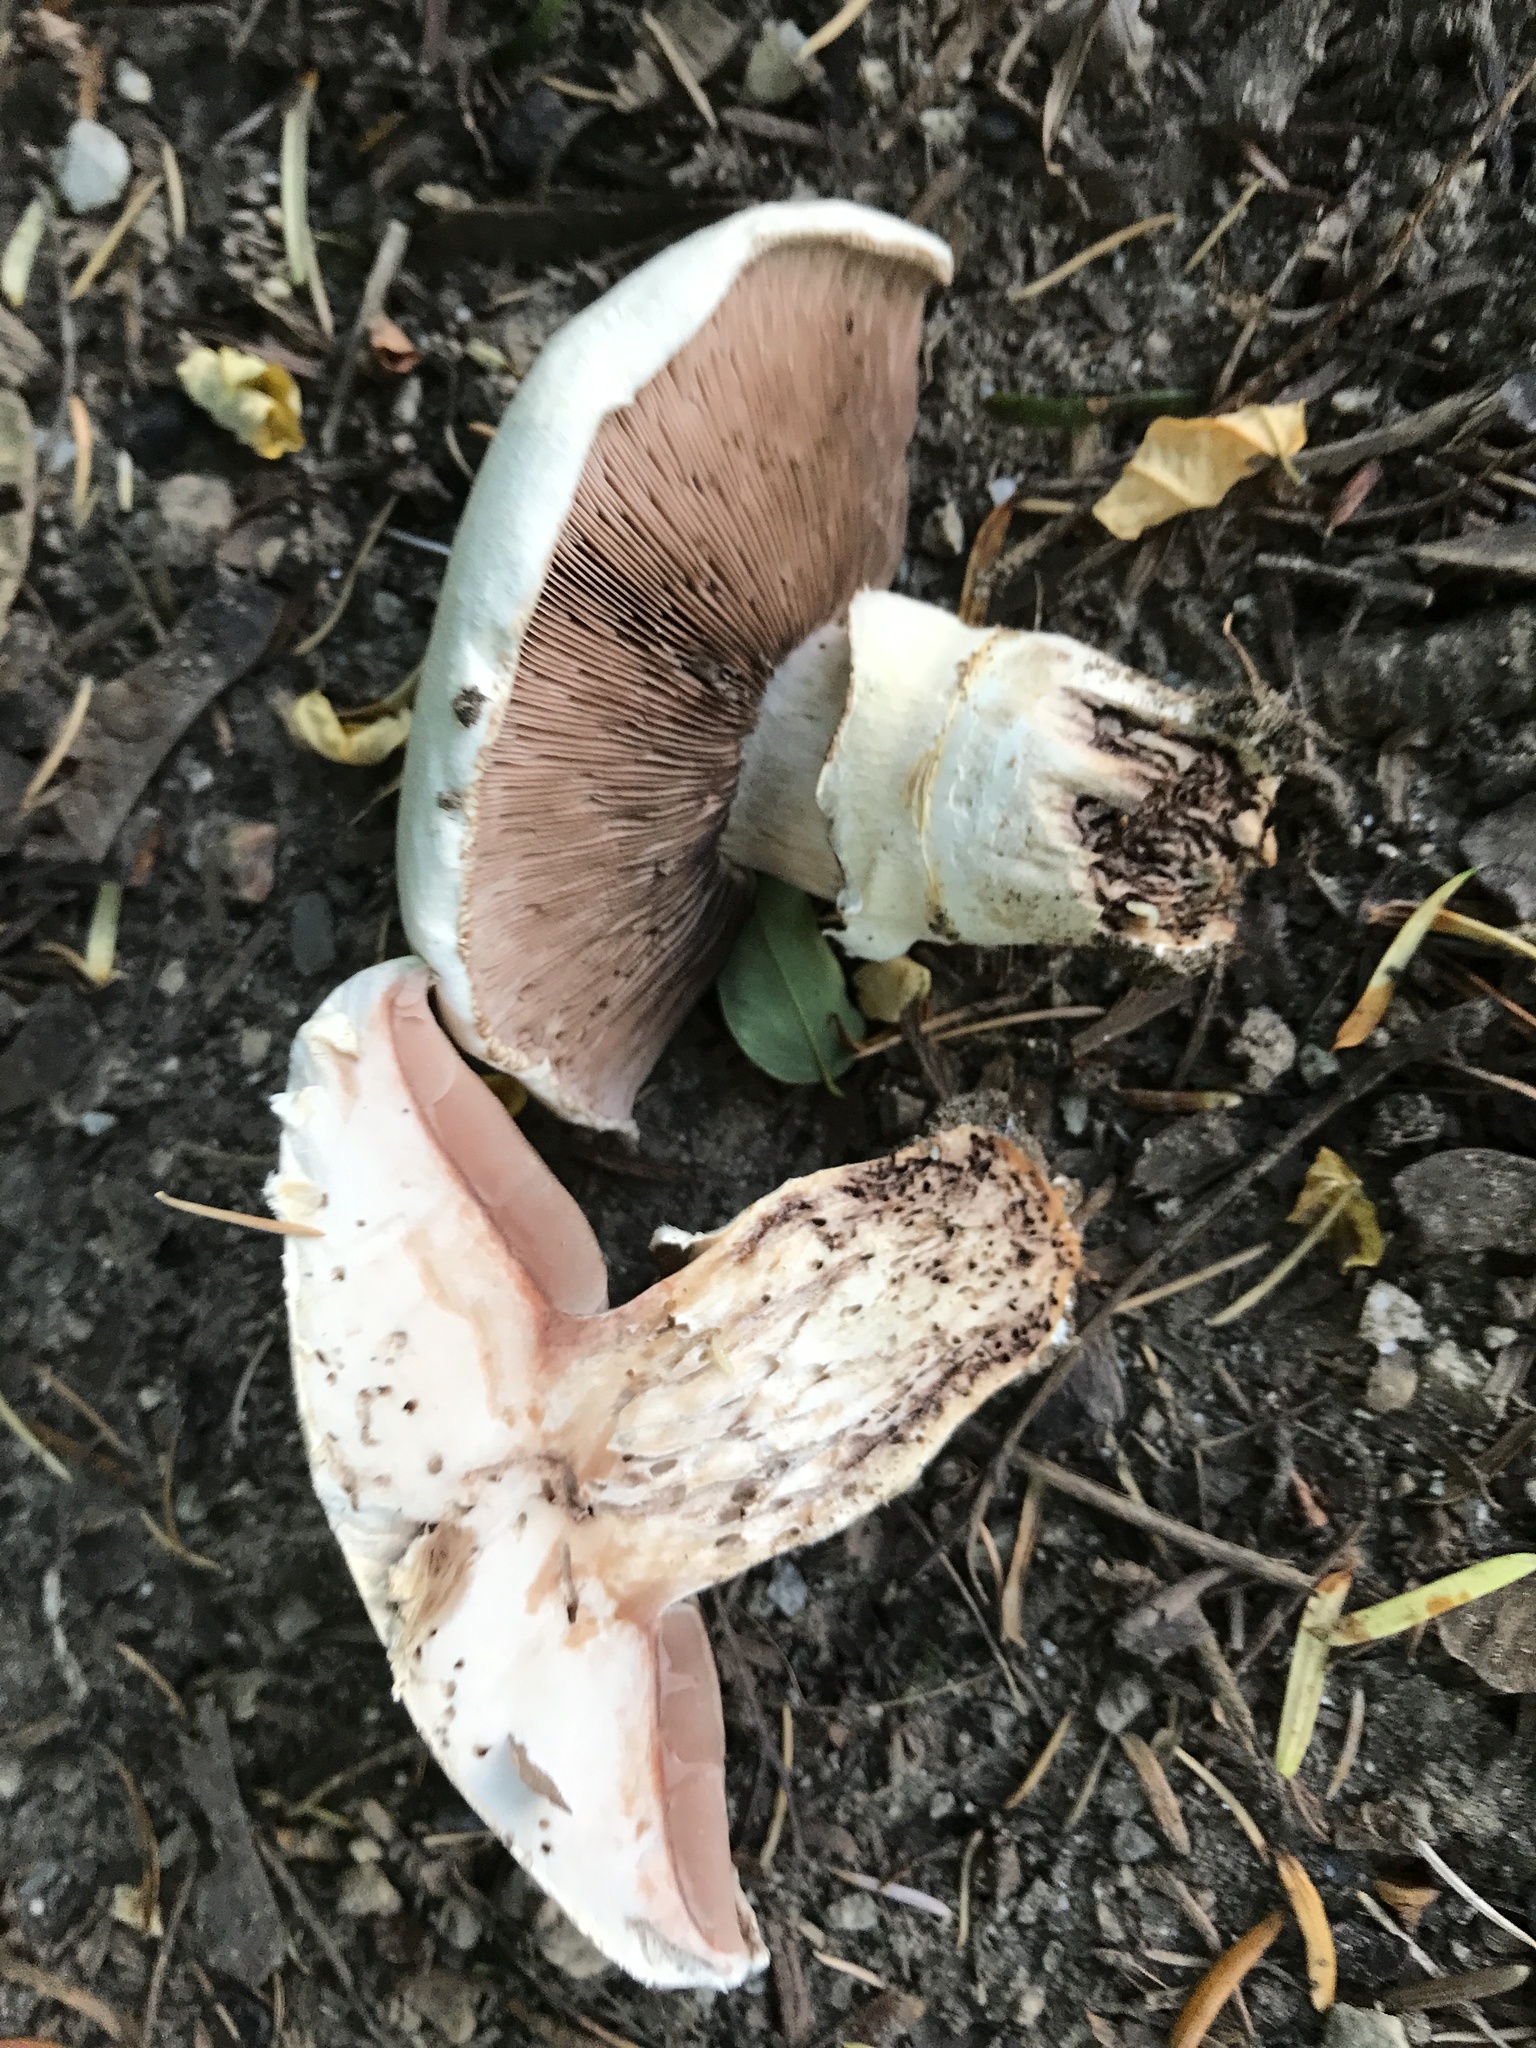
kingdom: Fungi
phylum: Basidiomycota
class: Agaricomycetes
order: Agaricales
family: Agaricaceae
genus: Agaricus
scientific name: Agaricus bitorquis
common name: Pavement mushroom
